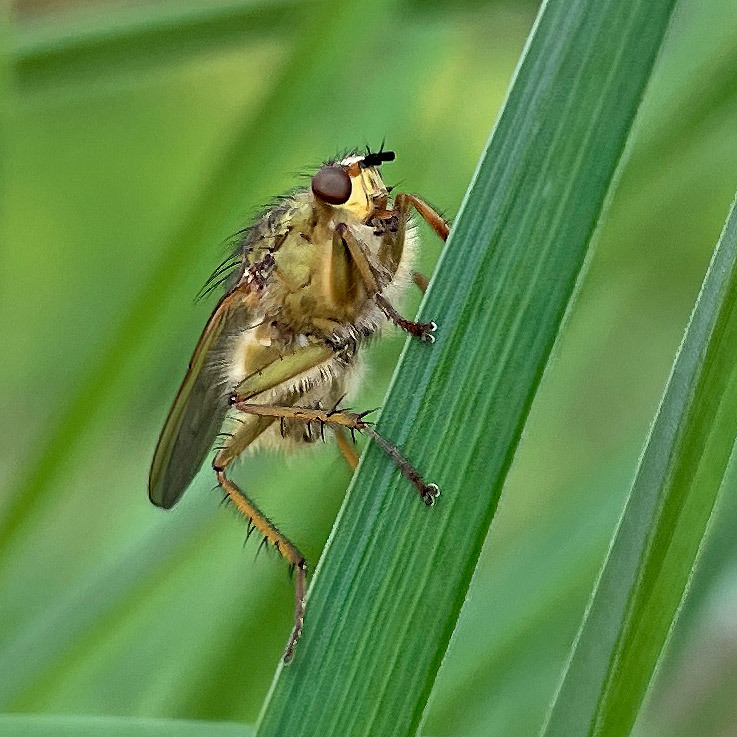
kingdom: Animalia
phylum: Arthropoda
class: Insecta
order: Diptera
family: Scathophagidae
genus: Scathophaga
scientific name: Scathophaga stercoraria
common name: Yellow dung fly
